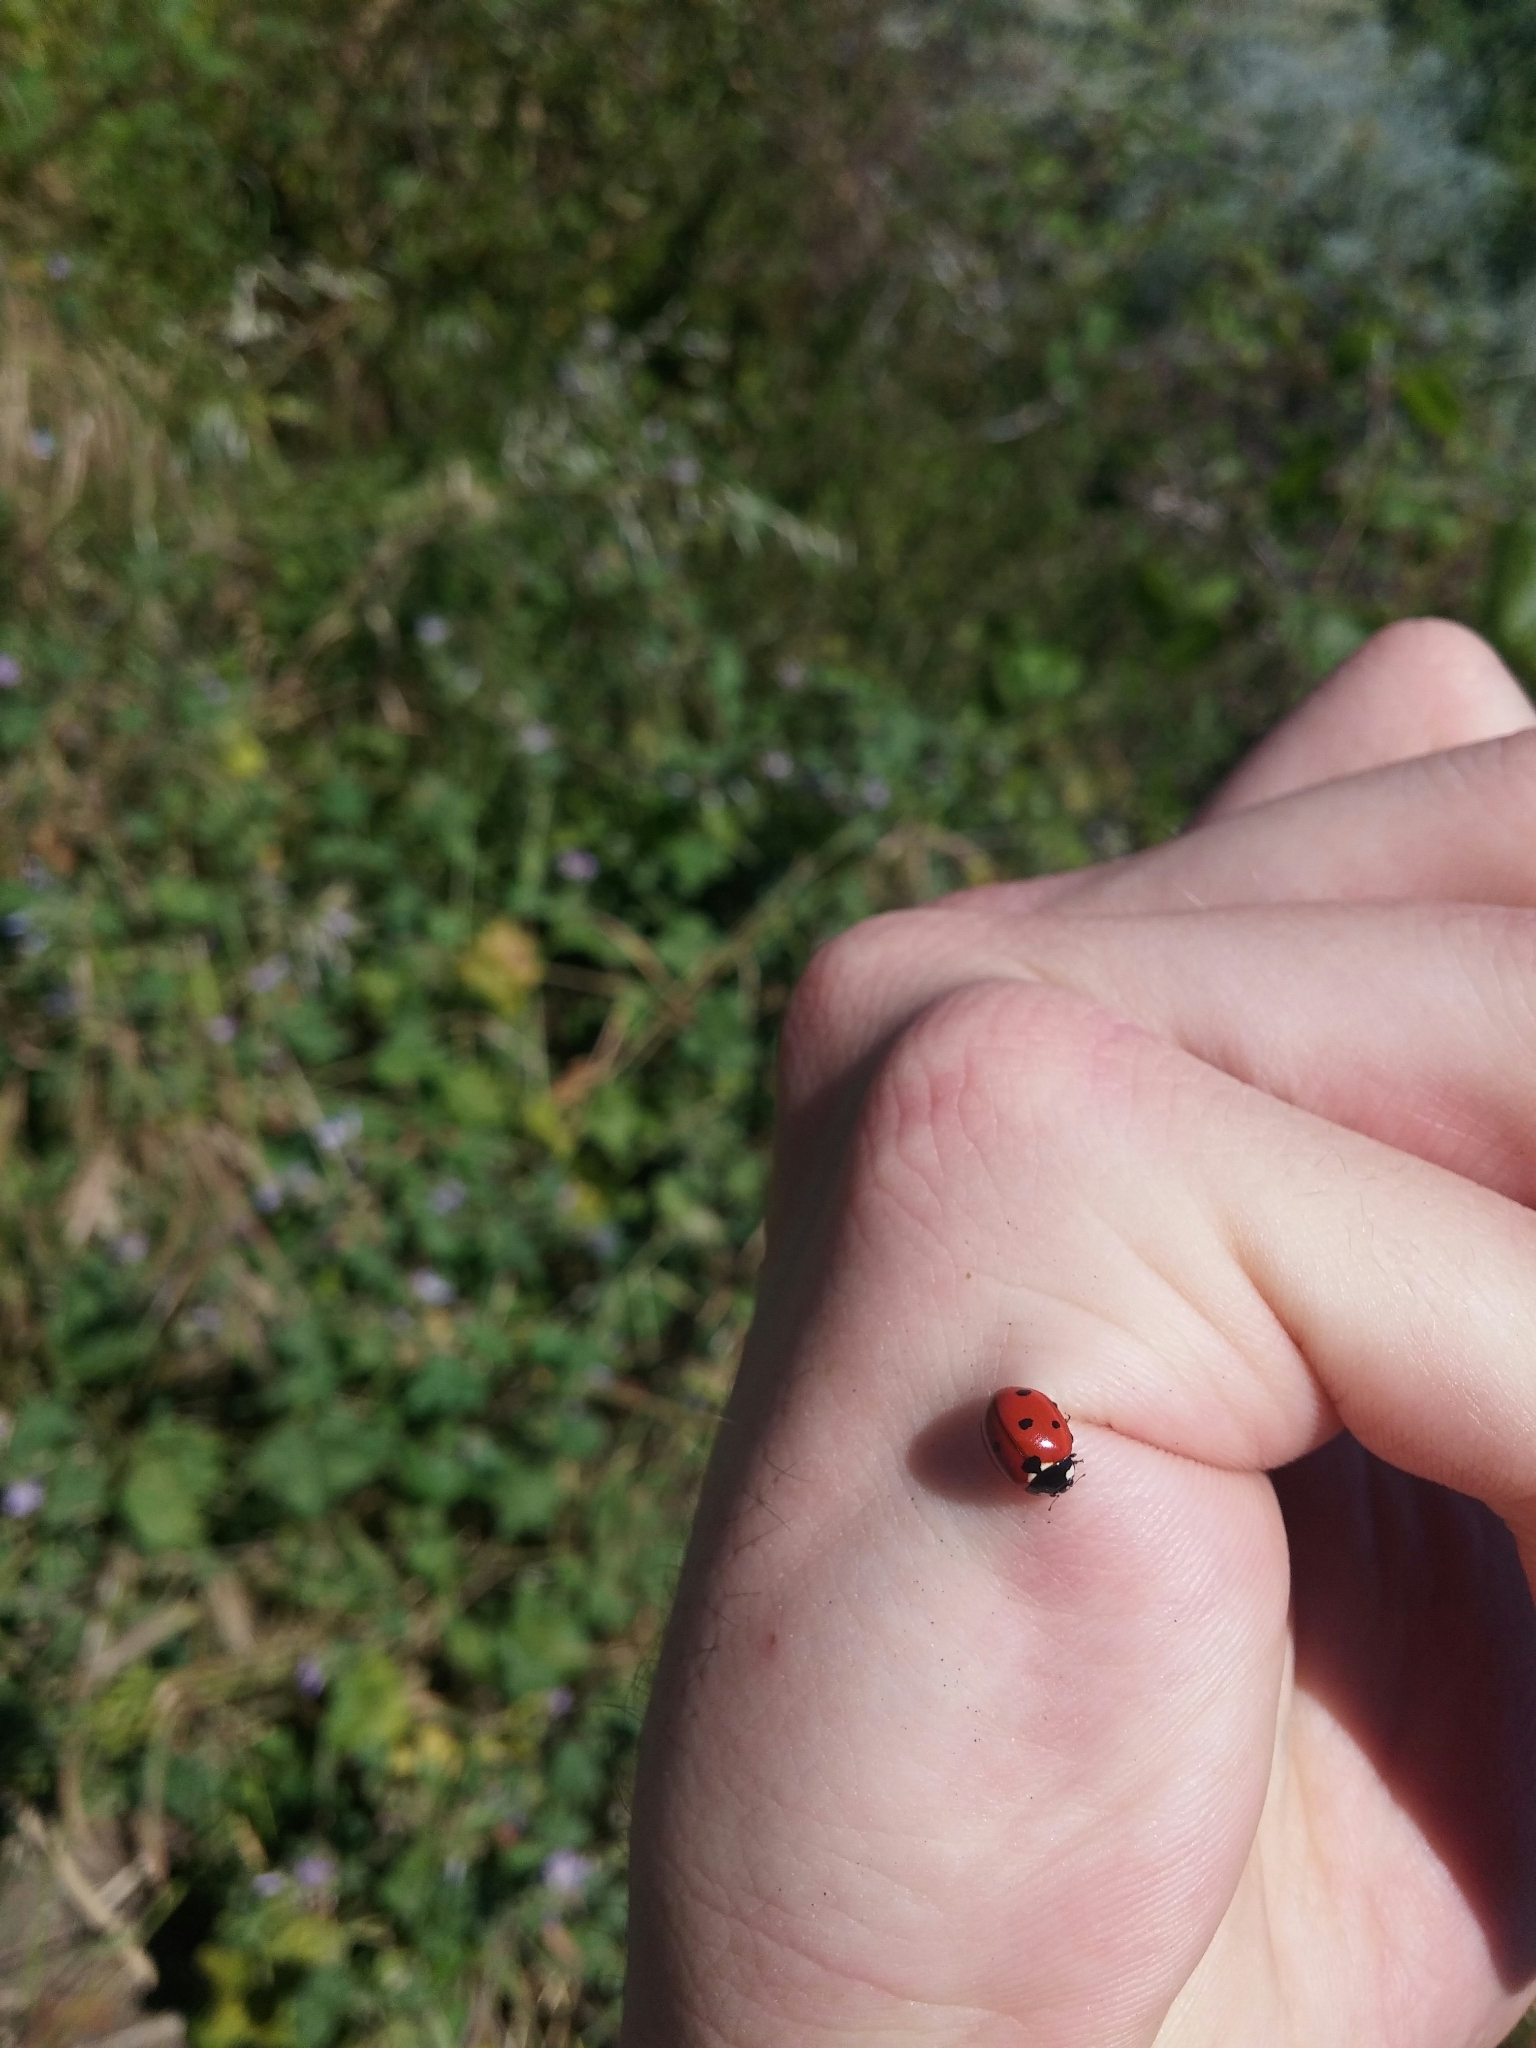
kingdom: Animalia
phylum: Arthropoda
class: Insecta
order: Coleoptera
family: Coccinellidae
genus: Coccinella
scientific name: Coccinella septempunctata
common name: Sevenspotted lady beetle
